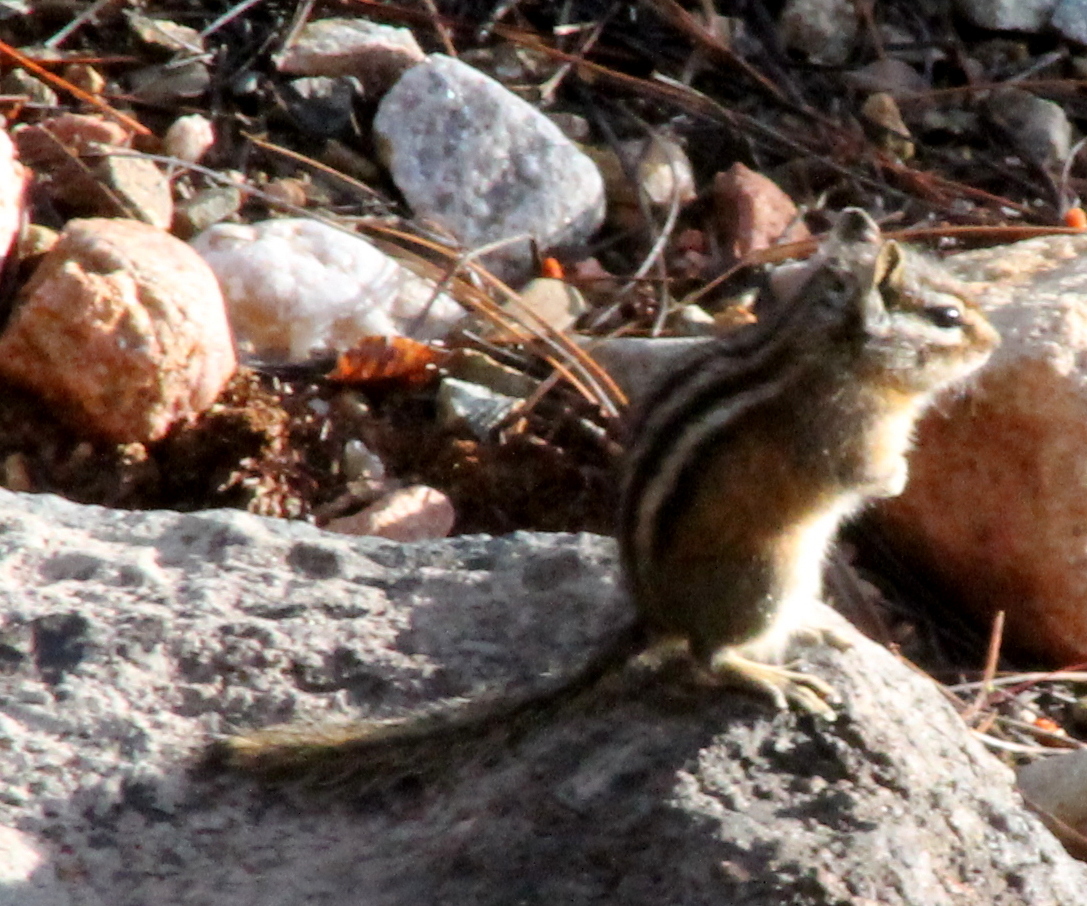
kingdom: Animalia
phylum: Chordata
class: Mammalia
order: Rodentia
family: Sciuridae
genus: Tamias
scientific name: Tamias minimus
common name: Least chipmunk
